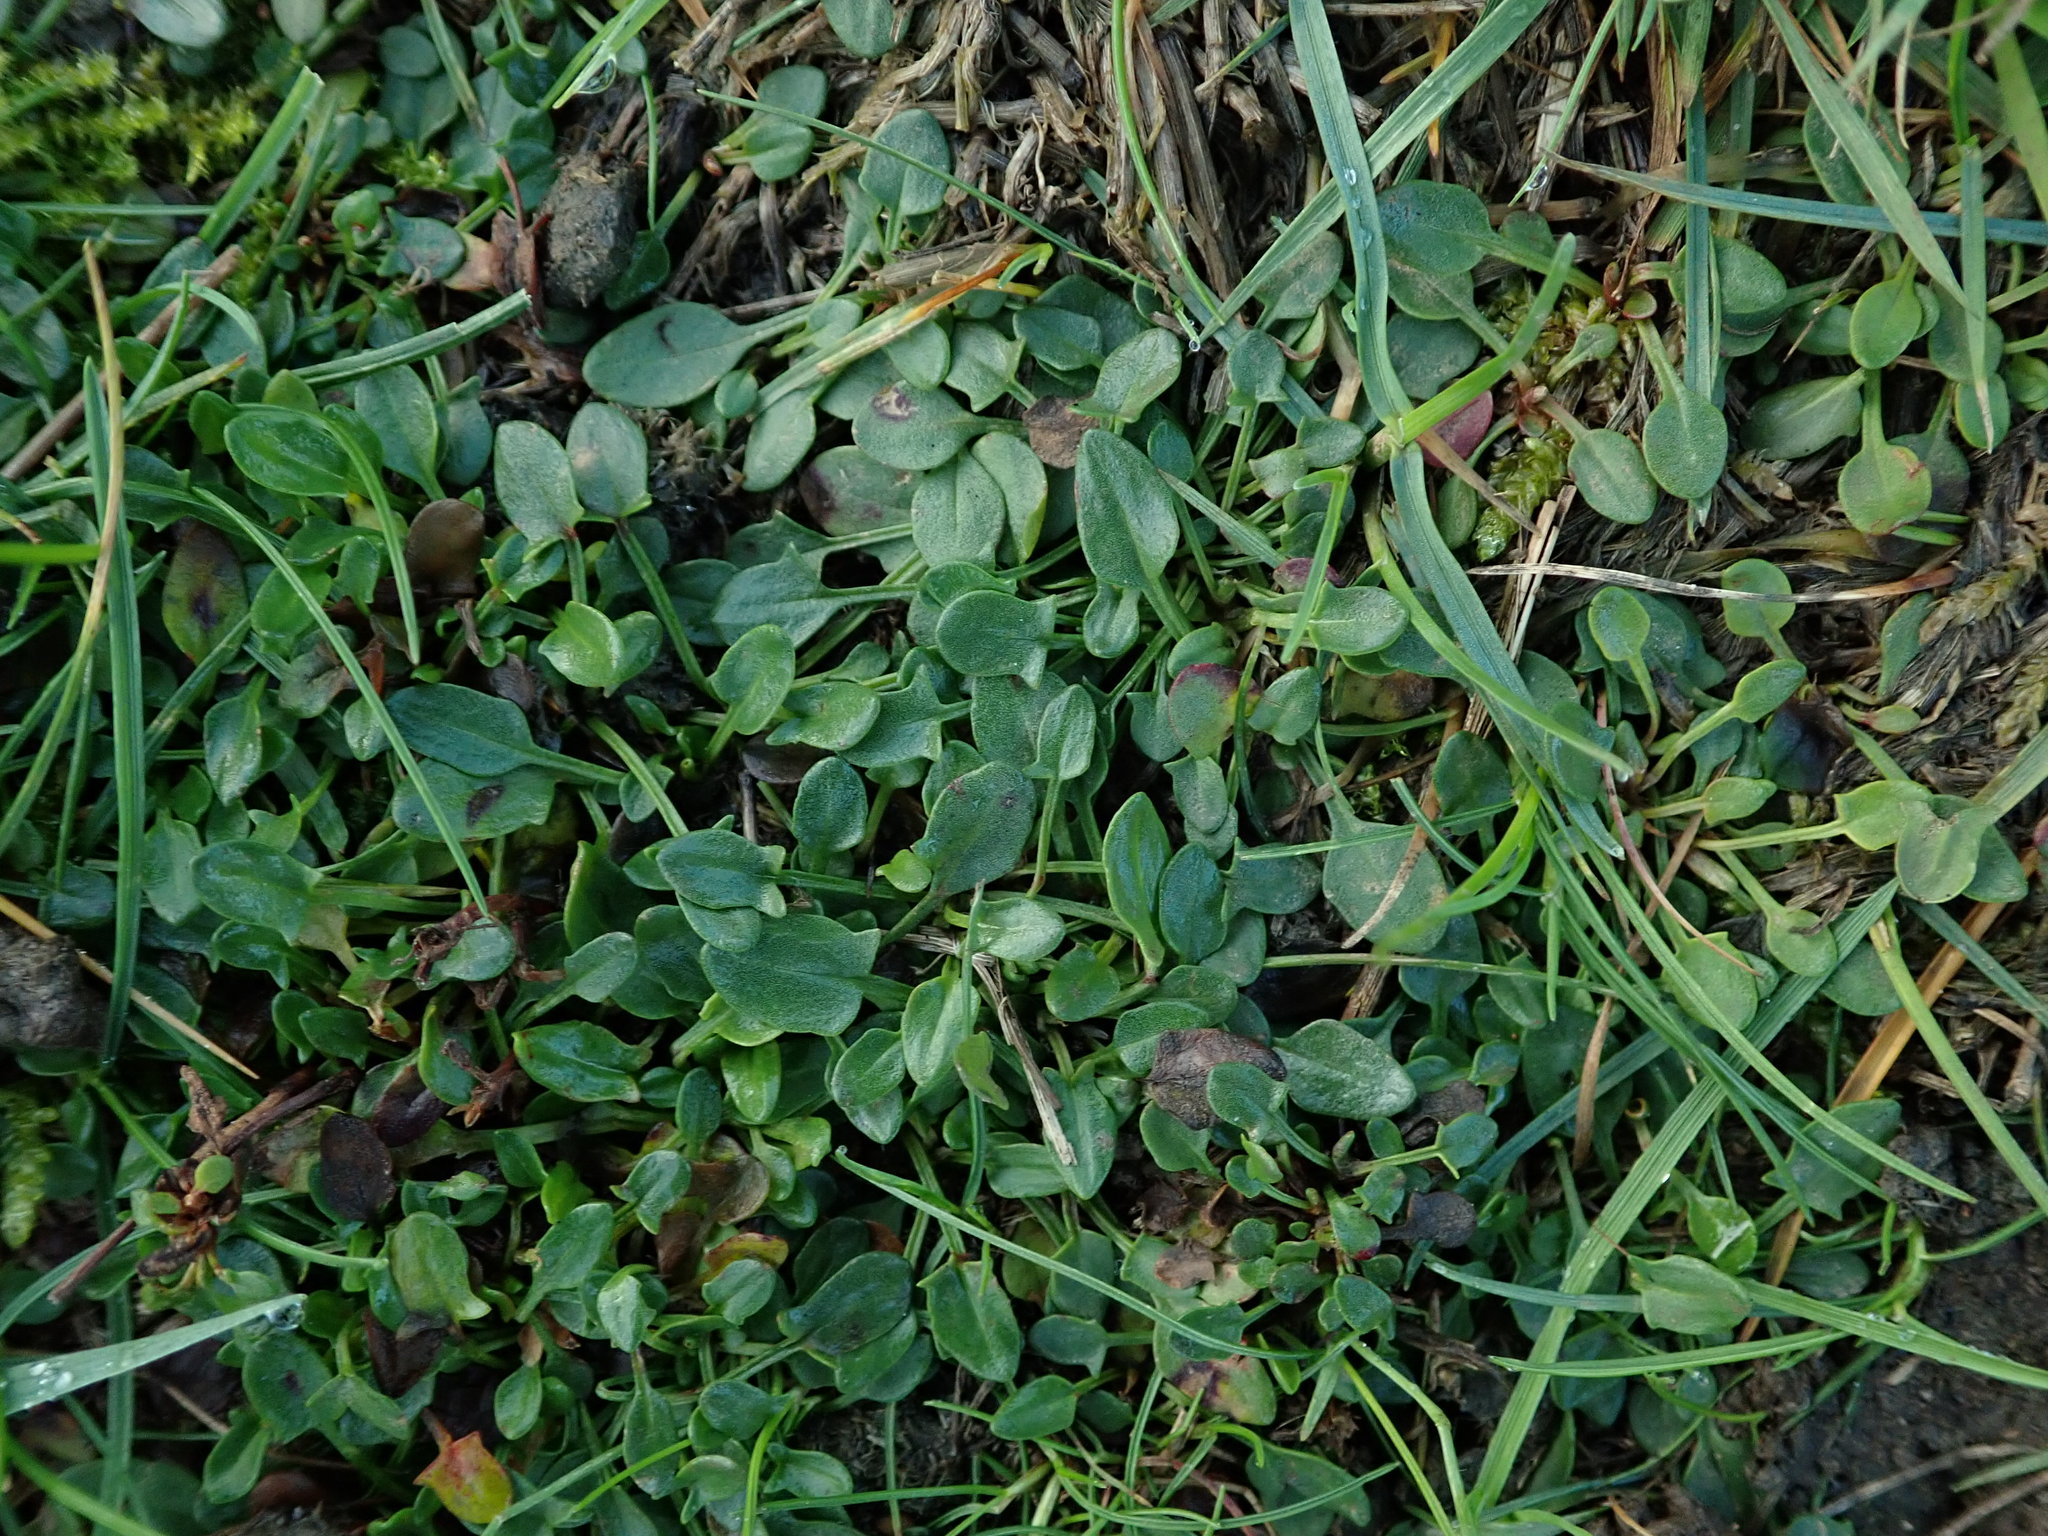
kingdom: Plantae
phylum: Tracheophyta
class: Magnoliopsida
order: Caryophyllales
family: Polygonaceae
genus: Rumex
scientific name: Rumex acetosella
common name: Common sheep sorrel
